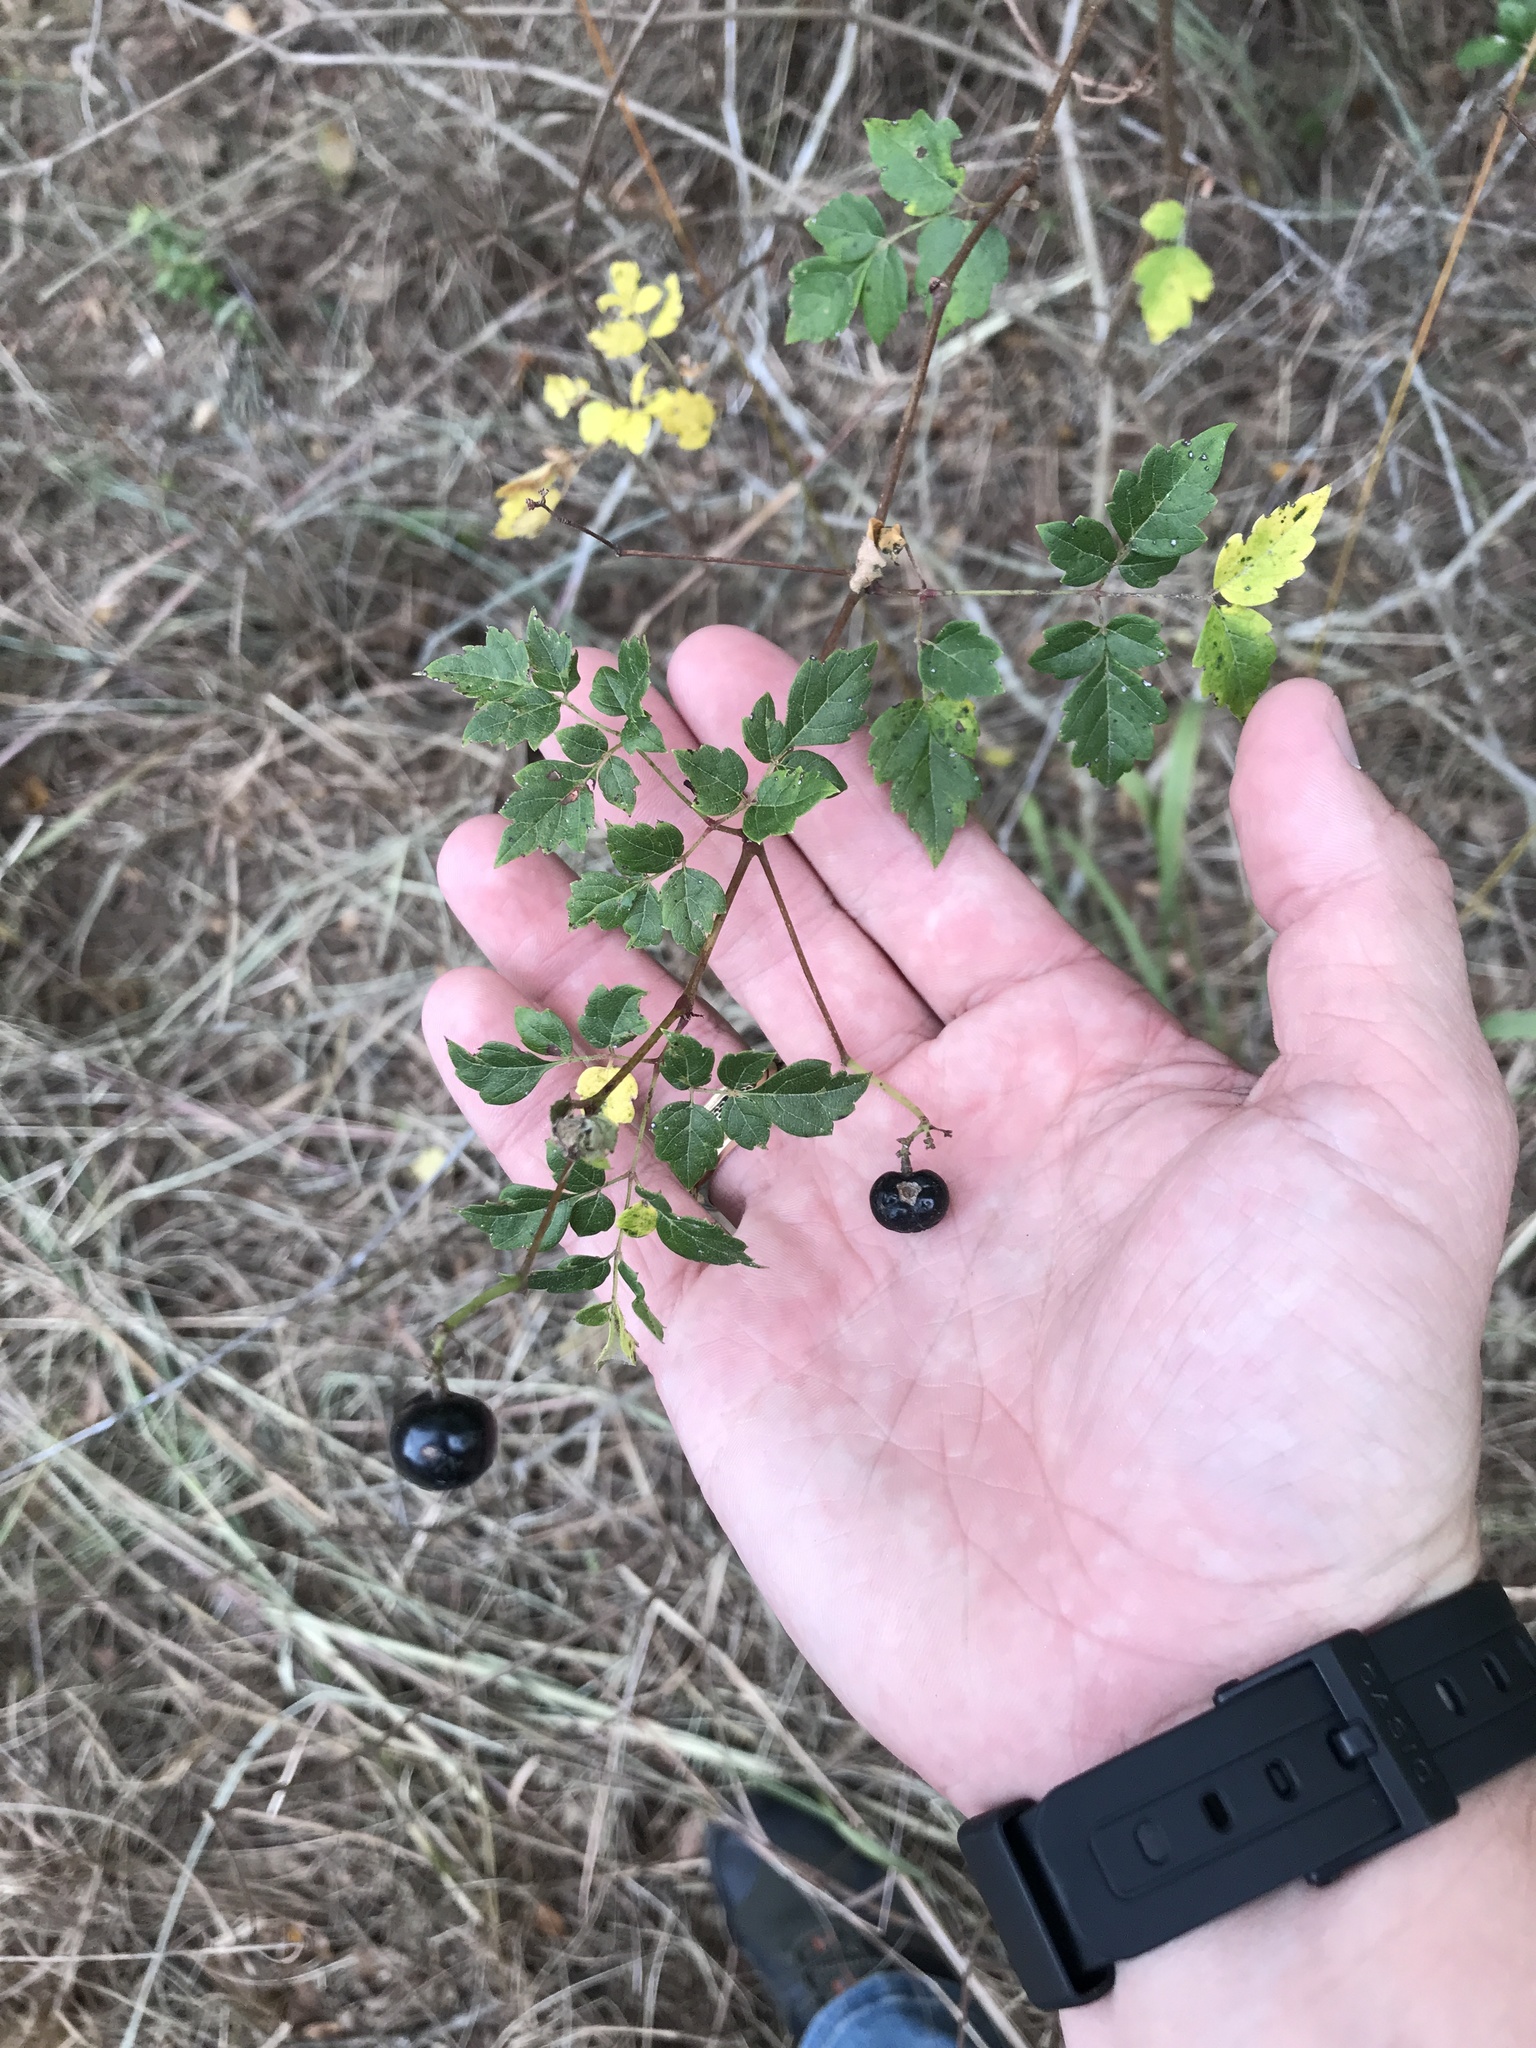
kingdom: Plantae
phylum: Tracheophyta
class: Magnoliopsida
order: Vitales
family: Vitaceae
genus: Nekemias
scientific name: Nekemias arborea
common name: Peppervine
